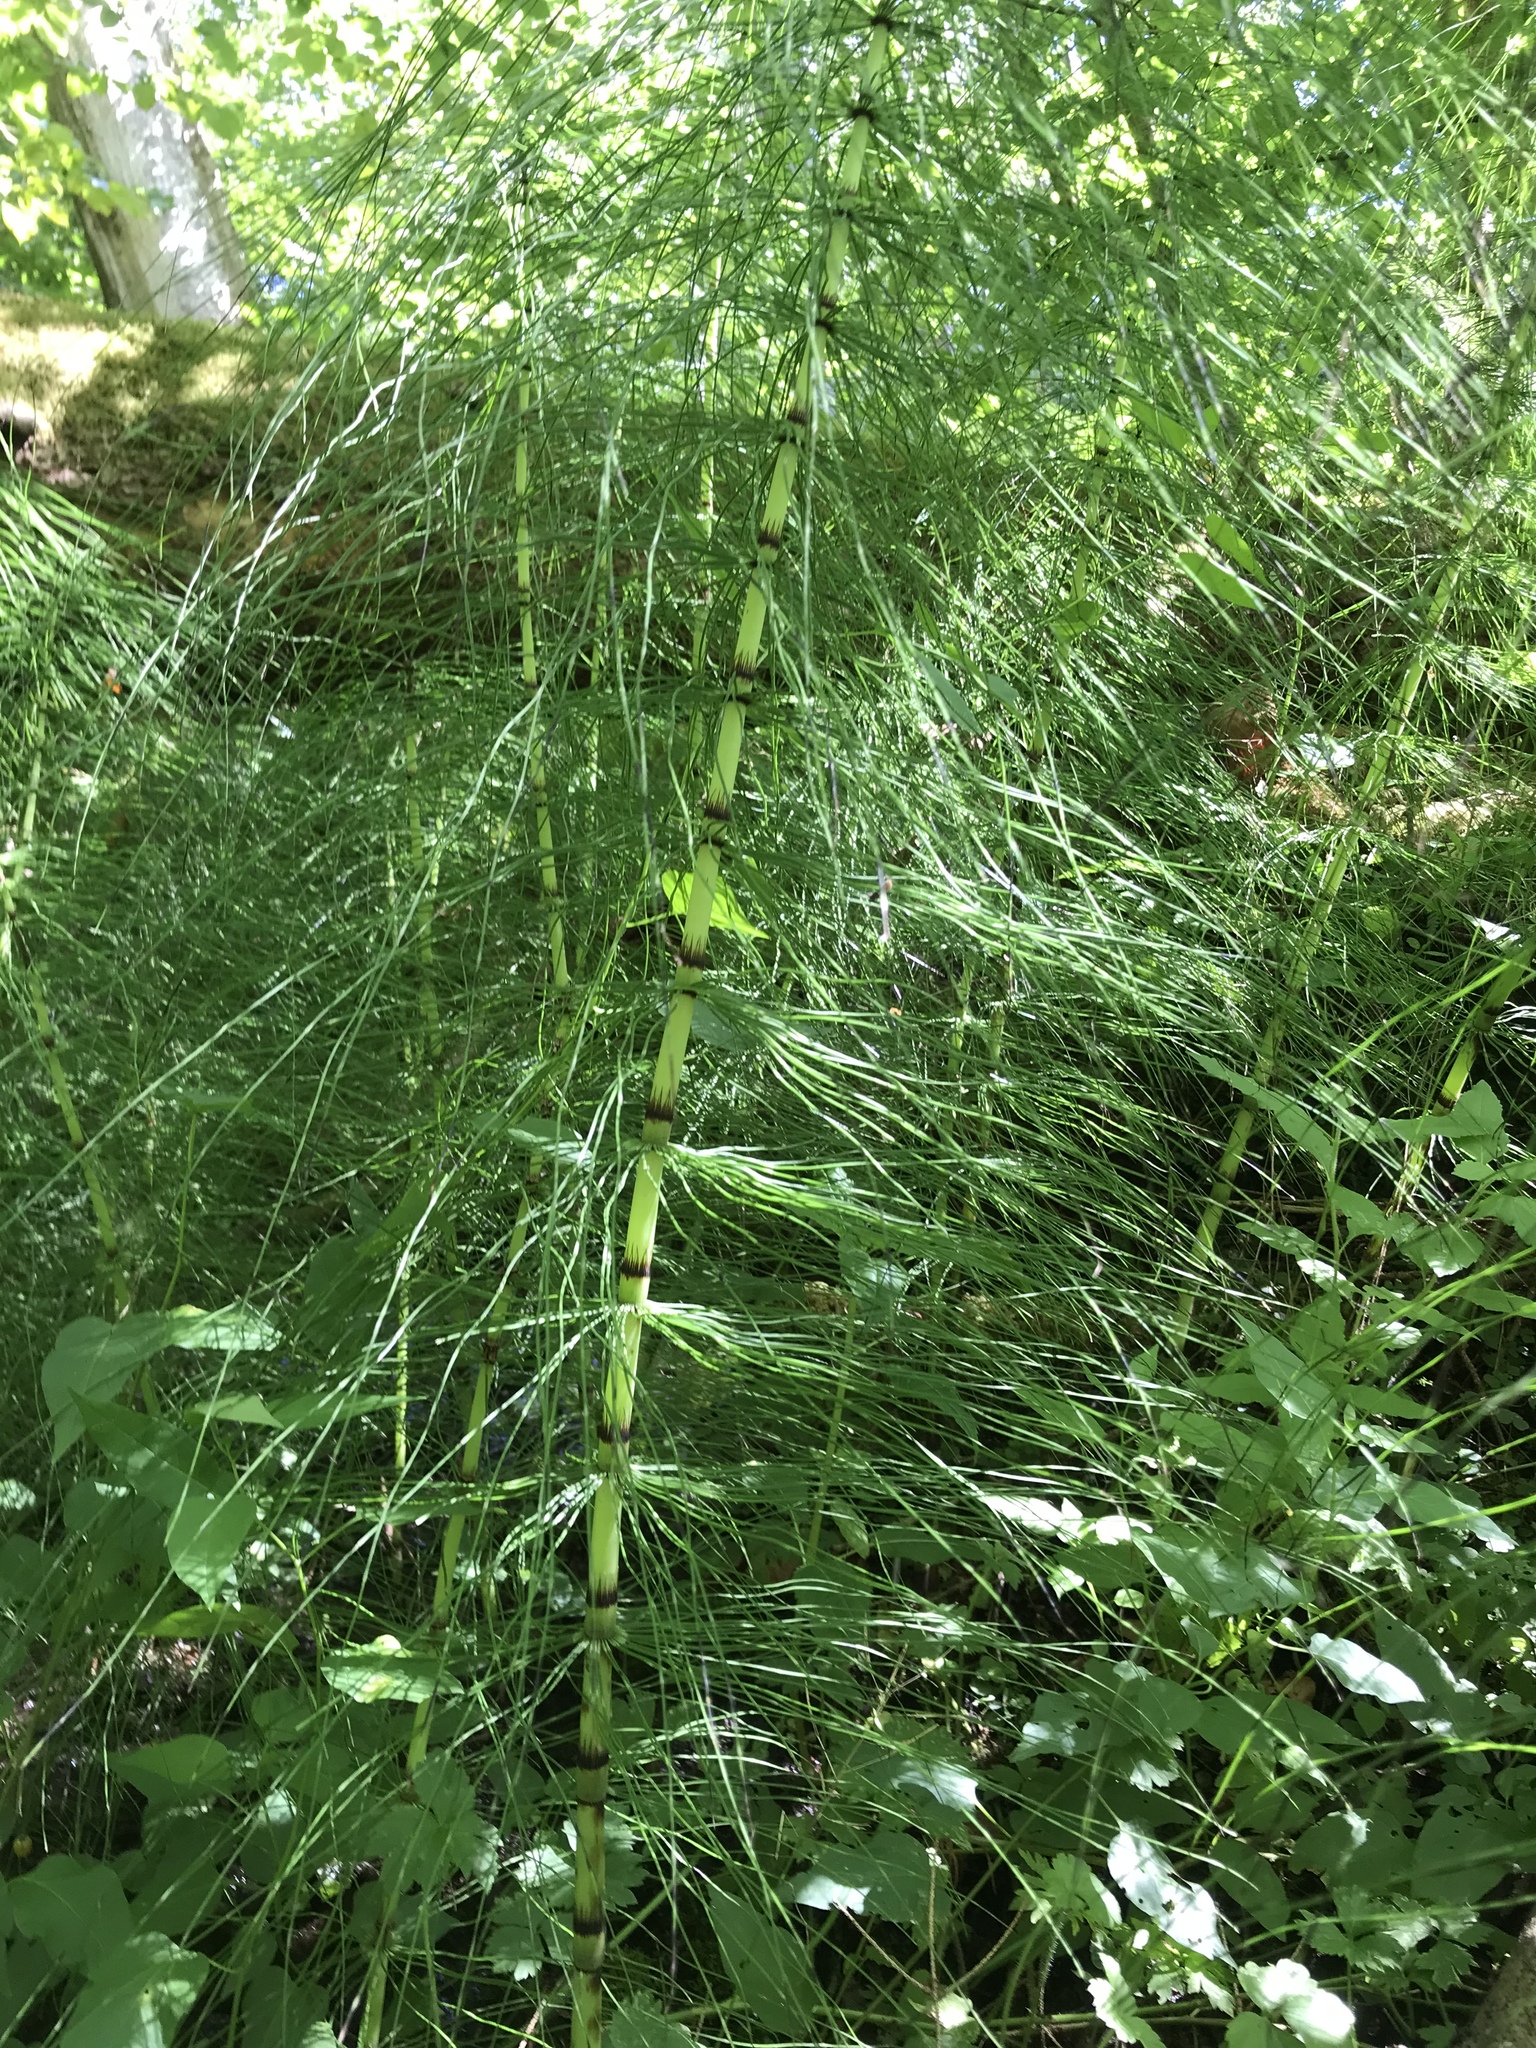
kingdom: Plantae
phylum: Tracheophyta
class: Polypodiopsida
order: Equisetales
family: Equisetaceae
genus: Equisetum
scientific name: Equisetum telmateia
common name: Great horsetail
